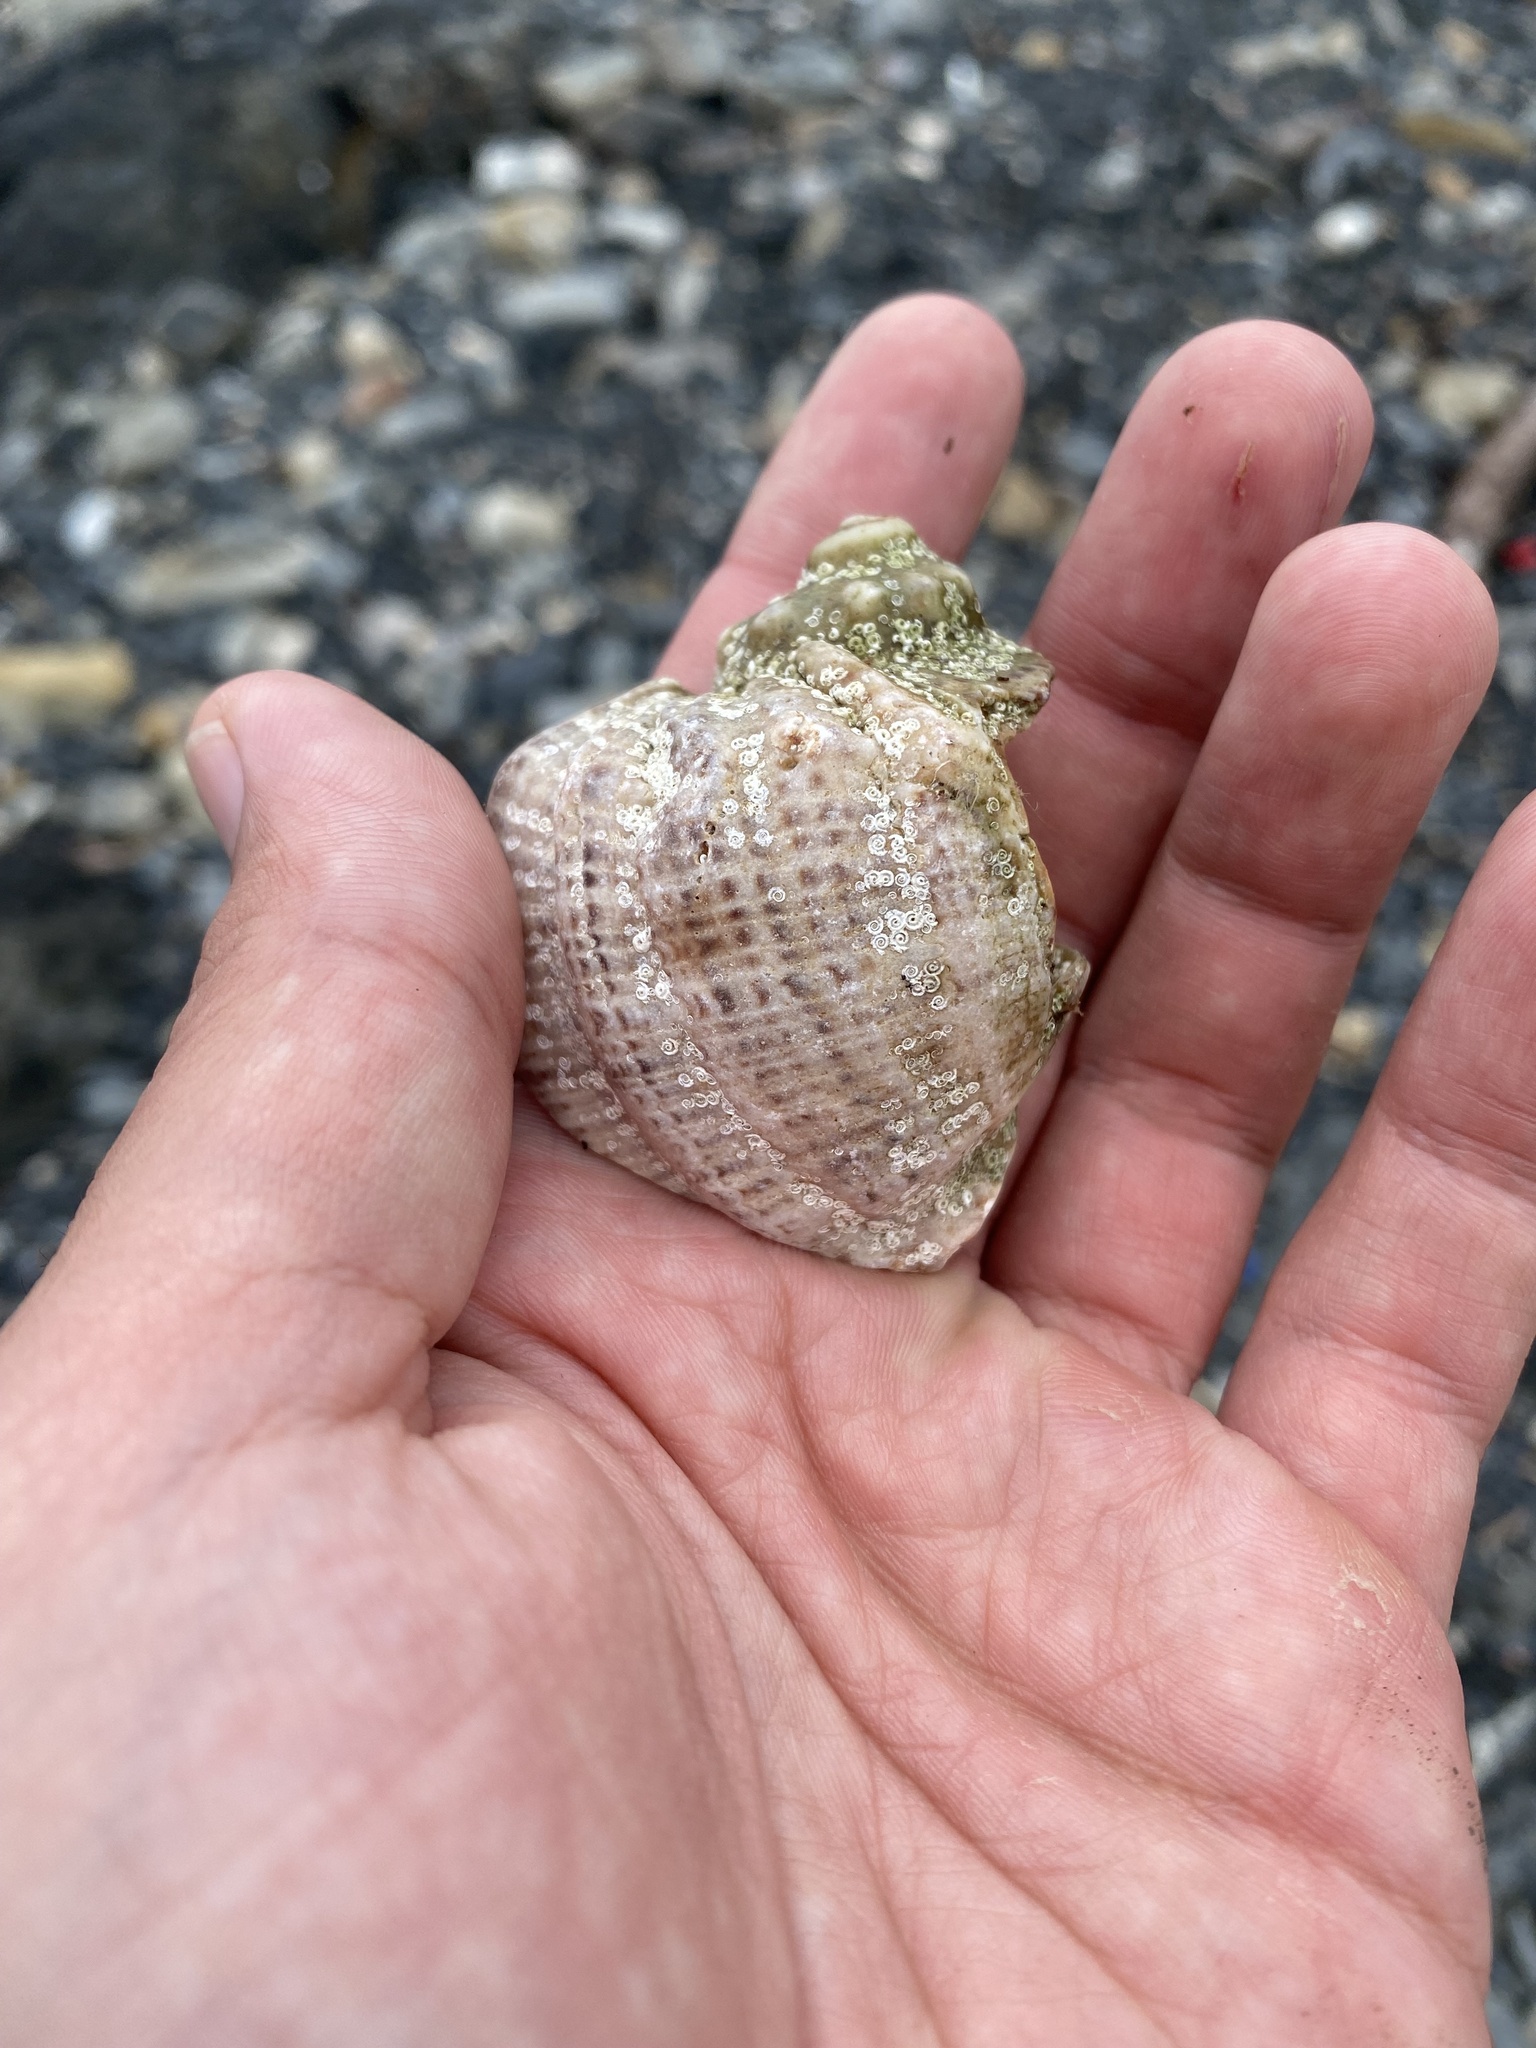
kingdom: Animalia
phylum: Mollusca
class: Gastropoda
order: Neogastropoda
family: Muricidae
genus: Rapana
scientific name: Rapana venosa
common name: Veined rapa whelk
